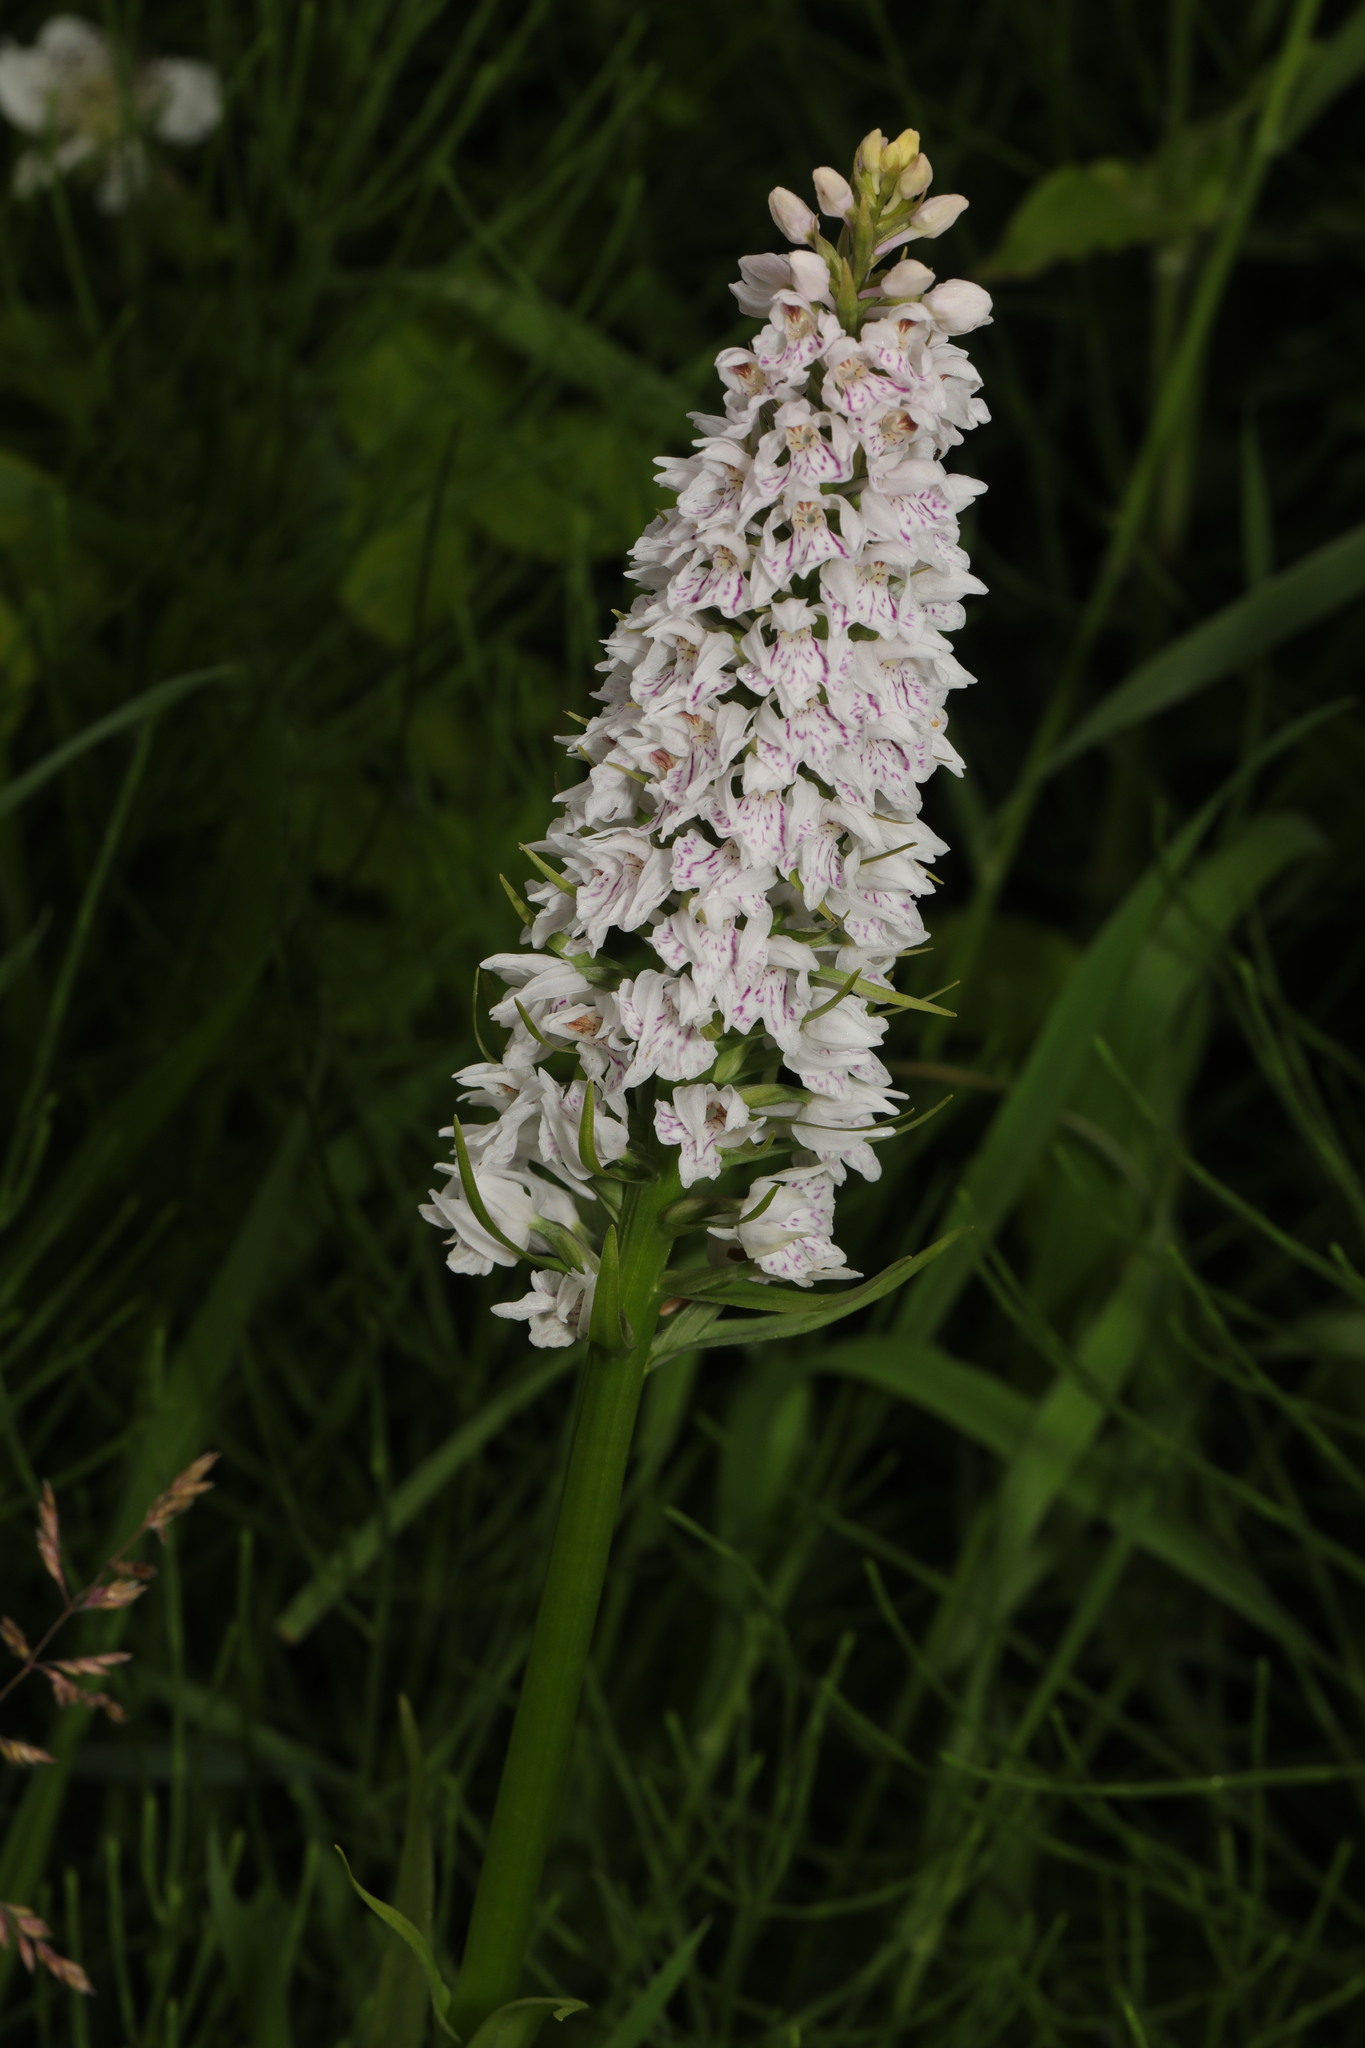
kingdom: Plantae
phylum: Tracheophyta
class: Liliopsida
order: Asparagales
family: Orchidaceae
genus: Dactylorhiza
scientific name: Dactylorhiza maculata
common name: Heath spotted-orchid
